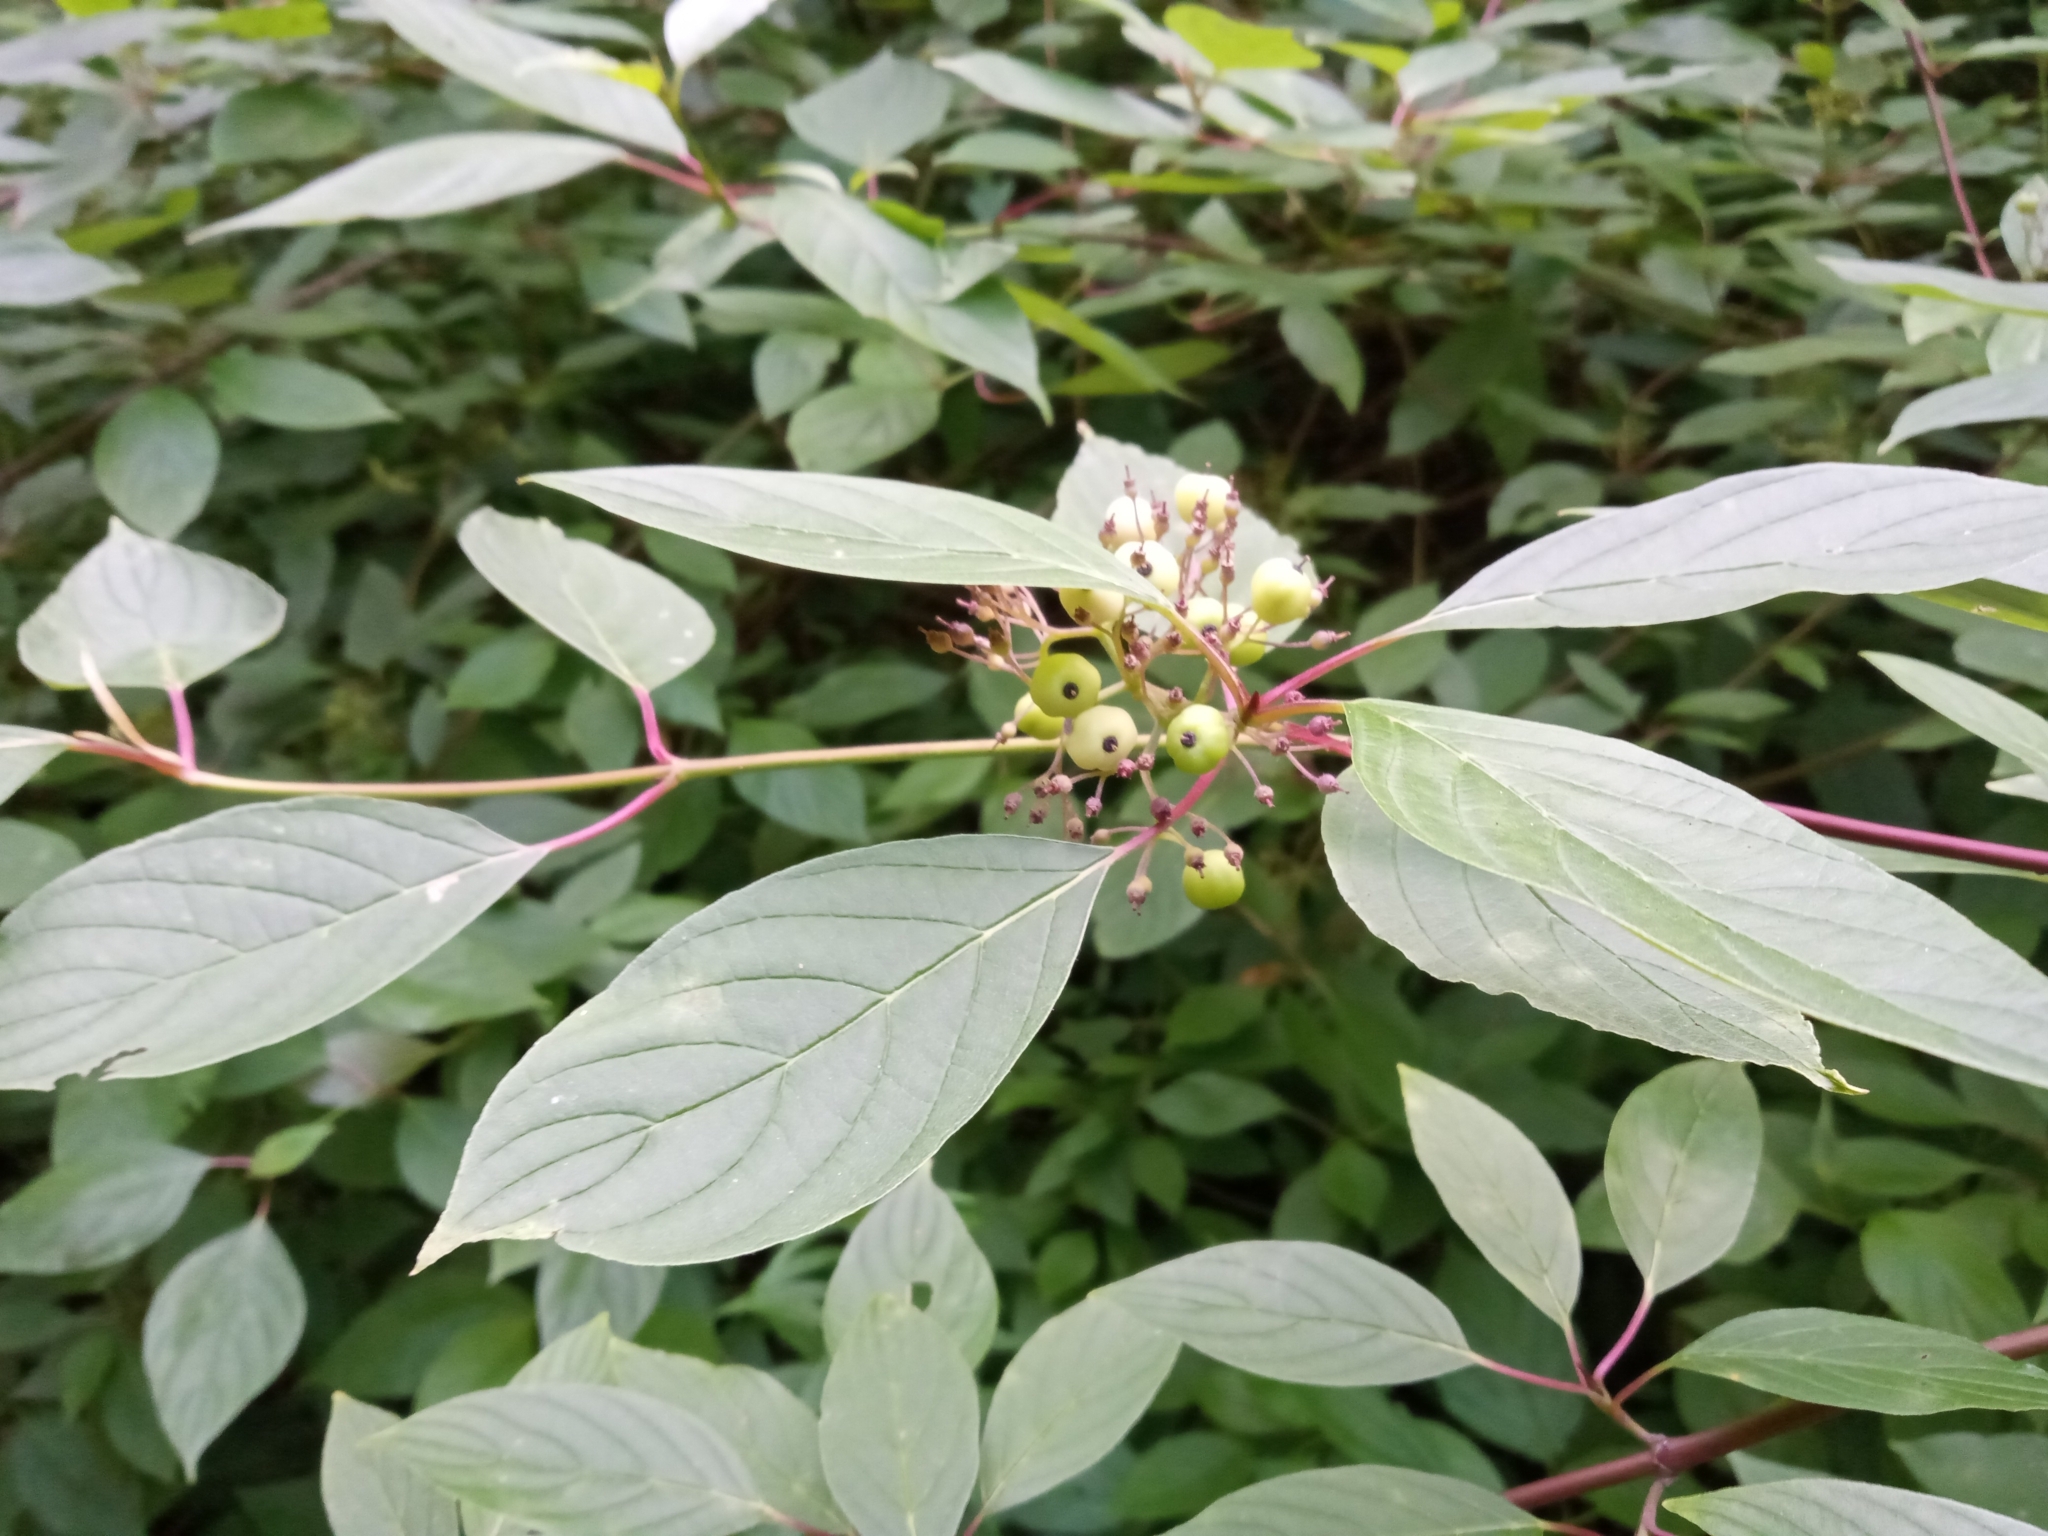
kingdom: Plantae
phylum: Tracheophyta
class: Magnoliopsida
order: Cornales
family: Cornaceae
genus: Cornus
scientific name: Cornus alba
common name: White dogwood
